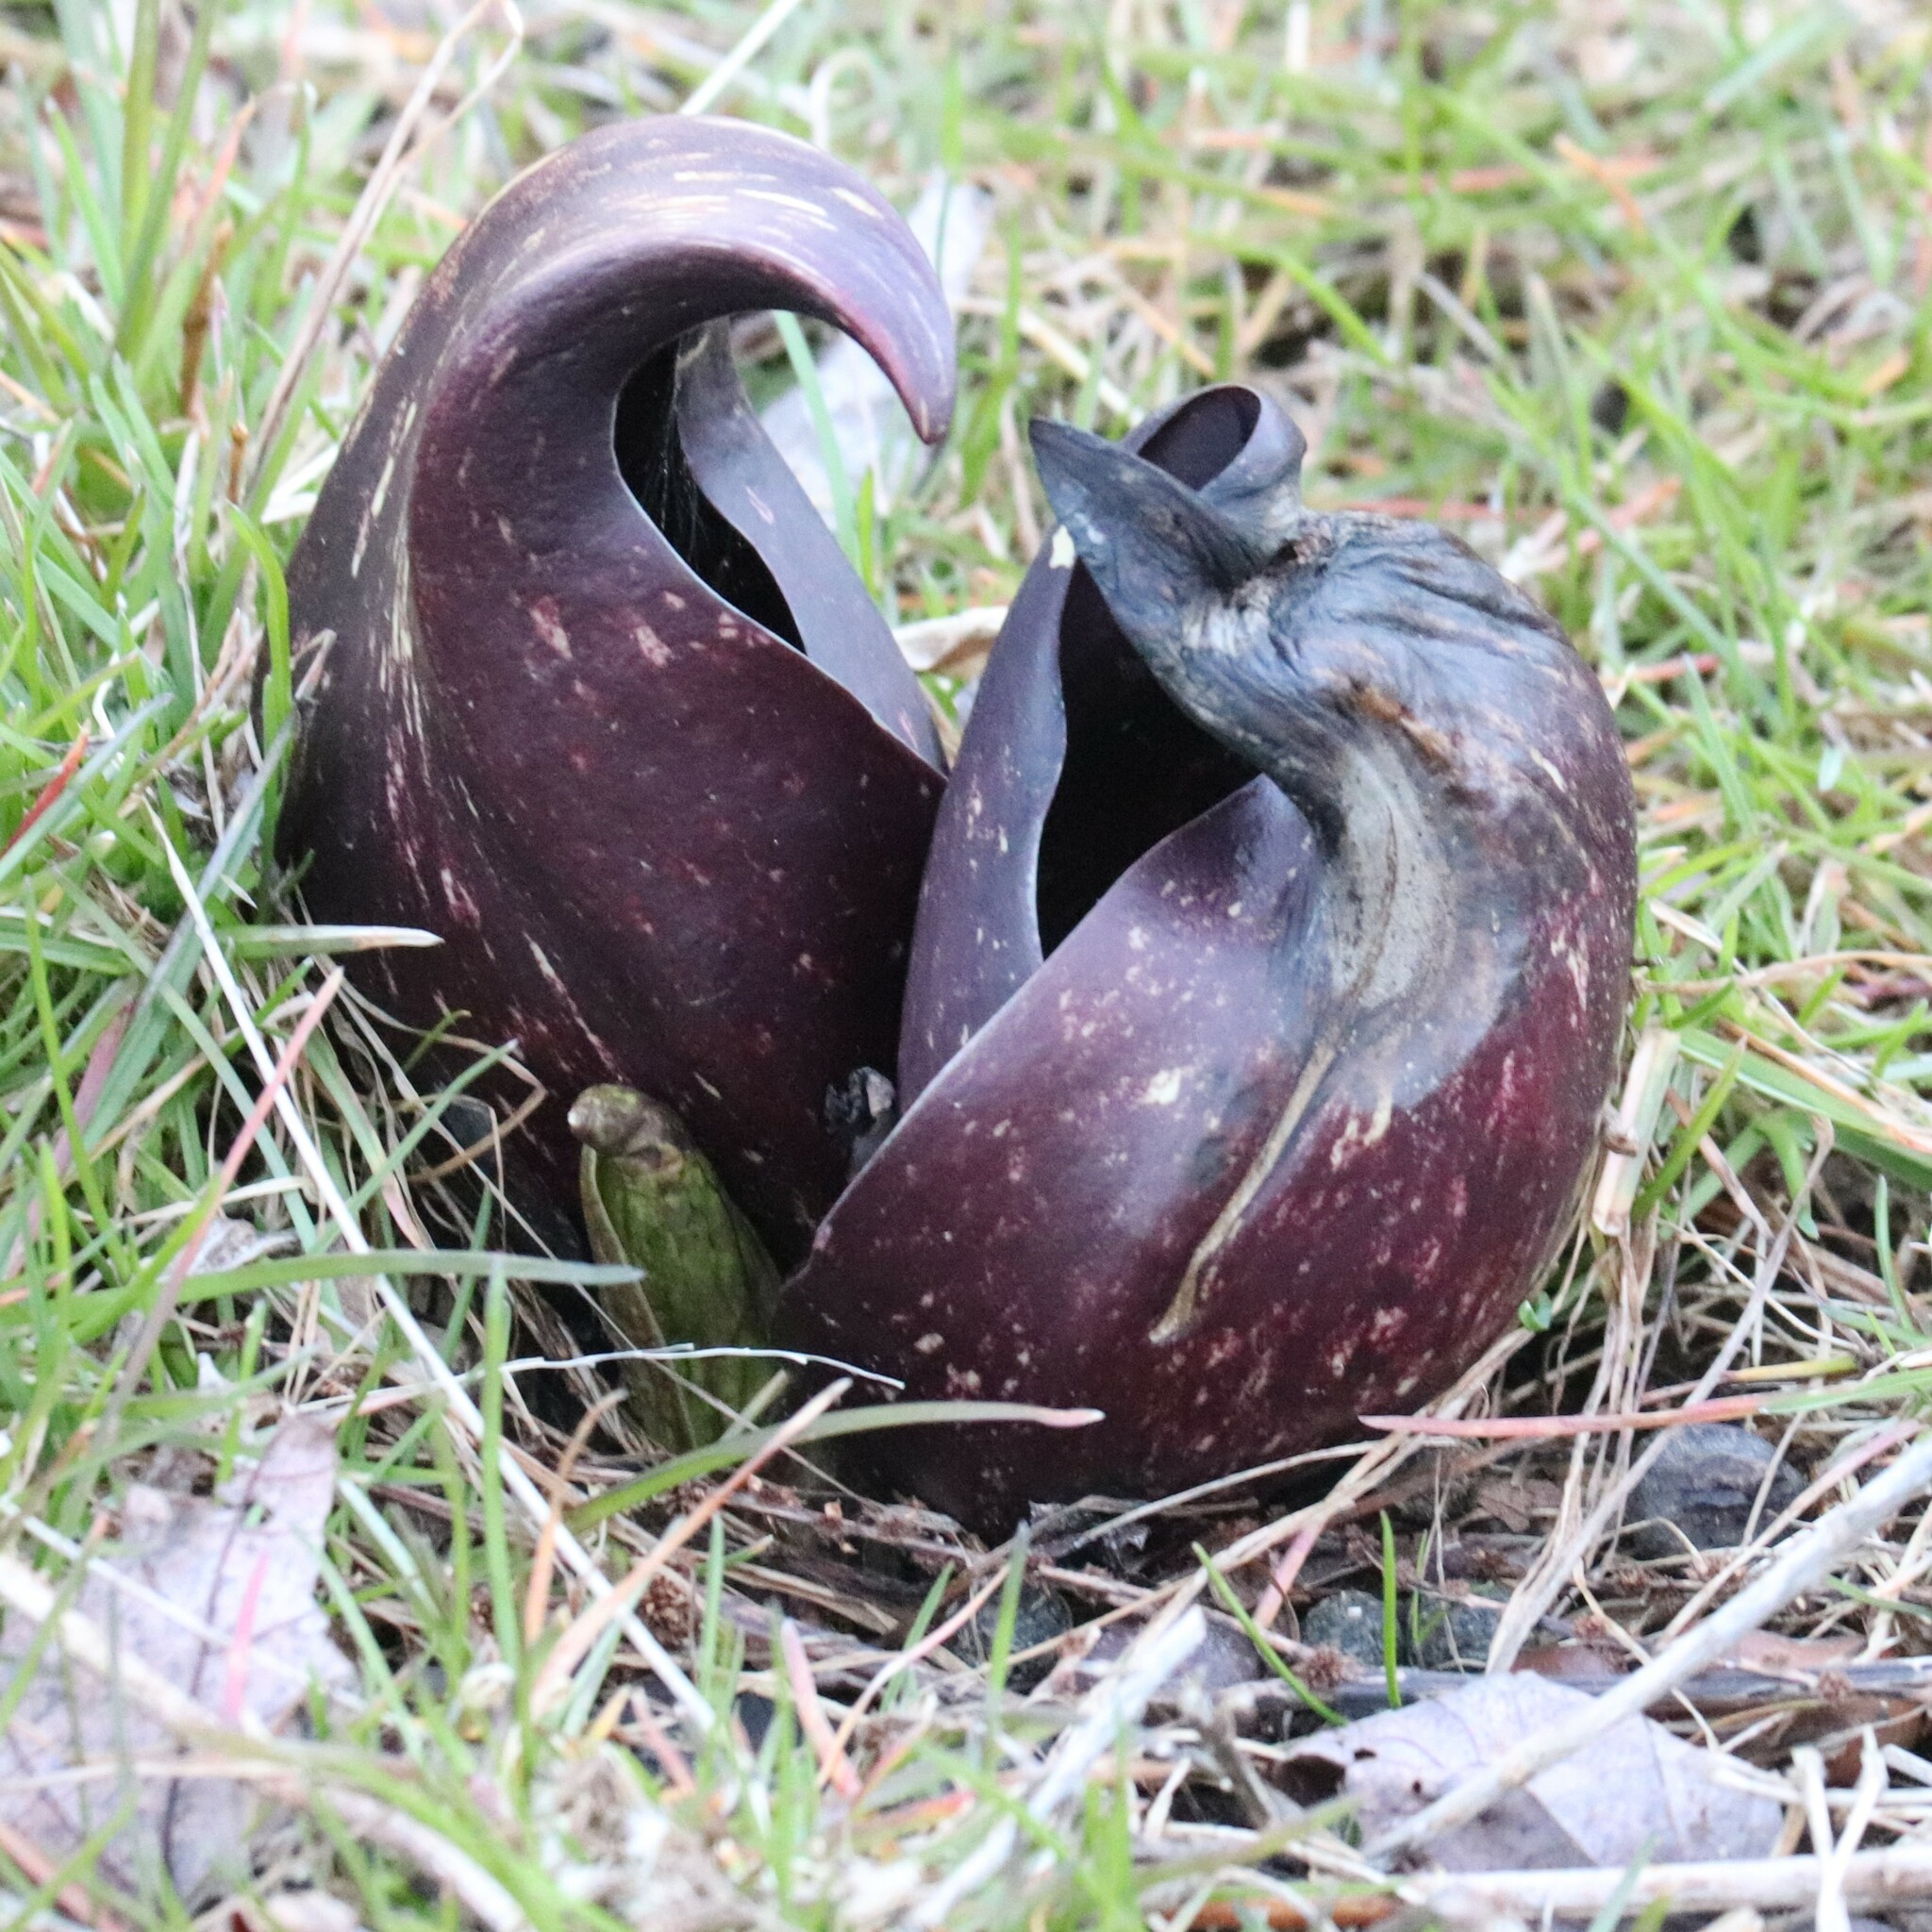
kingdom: Plantae
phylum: Tracheophyta
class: Liliopsida
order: Alismatales
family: Araceae
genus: Symplocarpus
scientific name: Symplocarpus foetidus
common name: Eastern skunk cabbage
